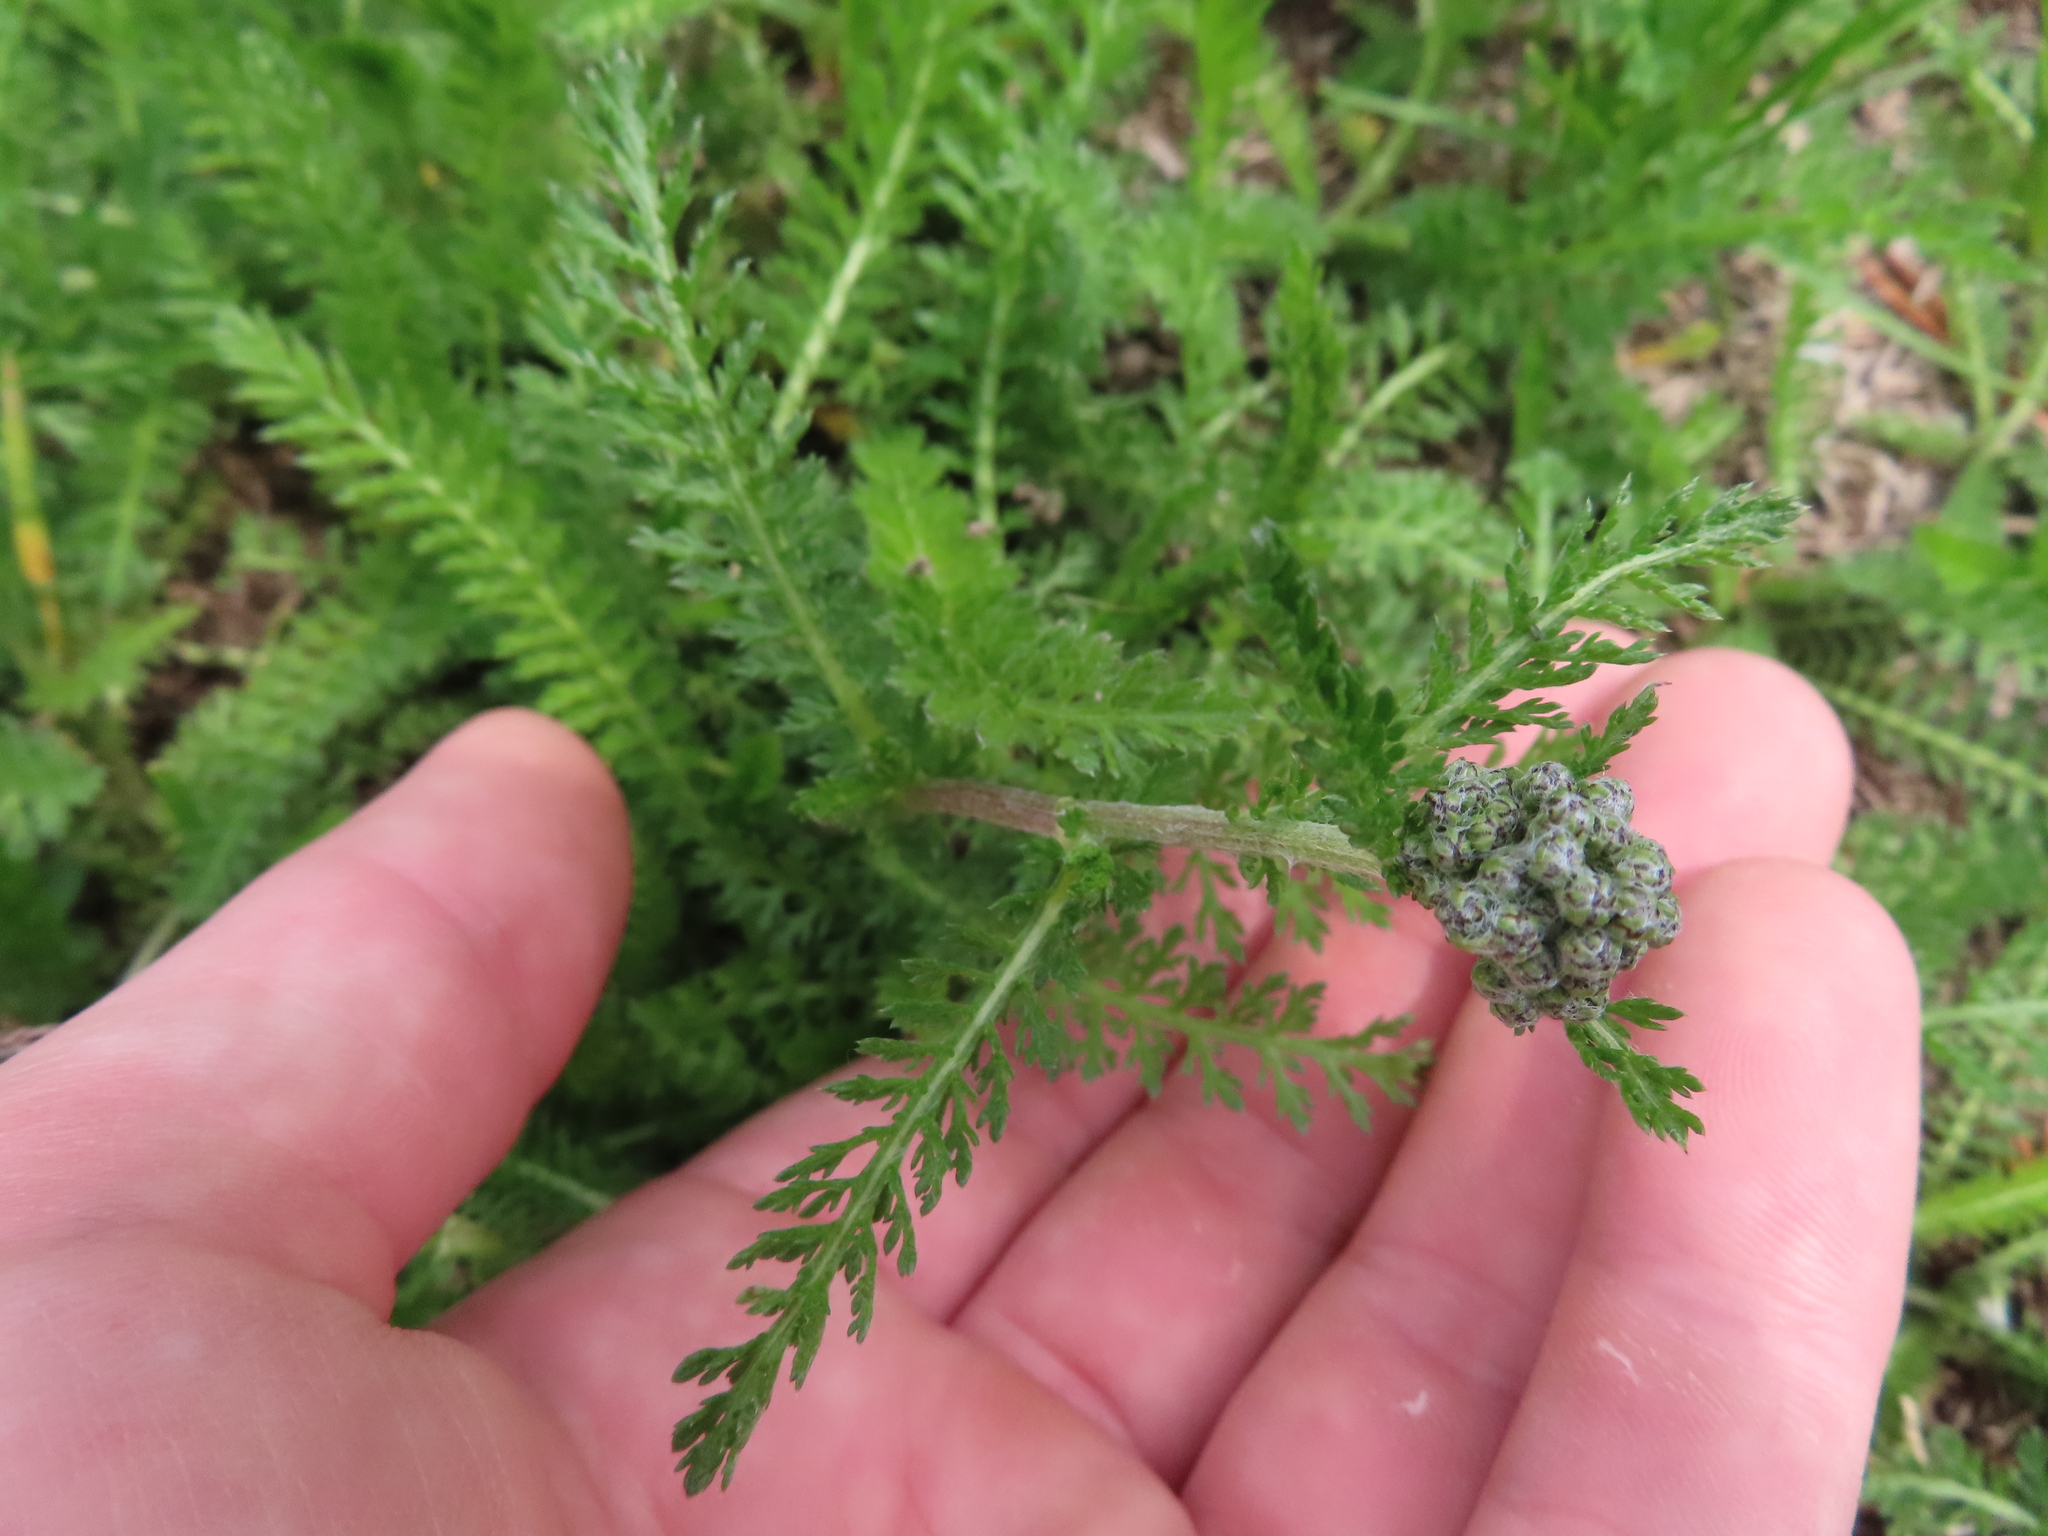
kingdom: Plantae
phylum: Tracheophyta
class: Magnoliopsida
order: Asterales
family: Asteraceae
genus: Achillea
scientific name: Achillea millefolium
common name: Yarrow
